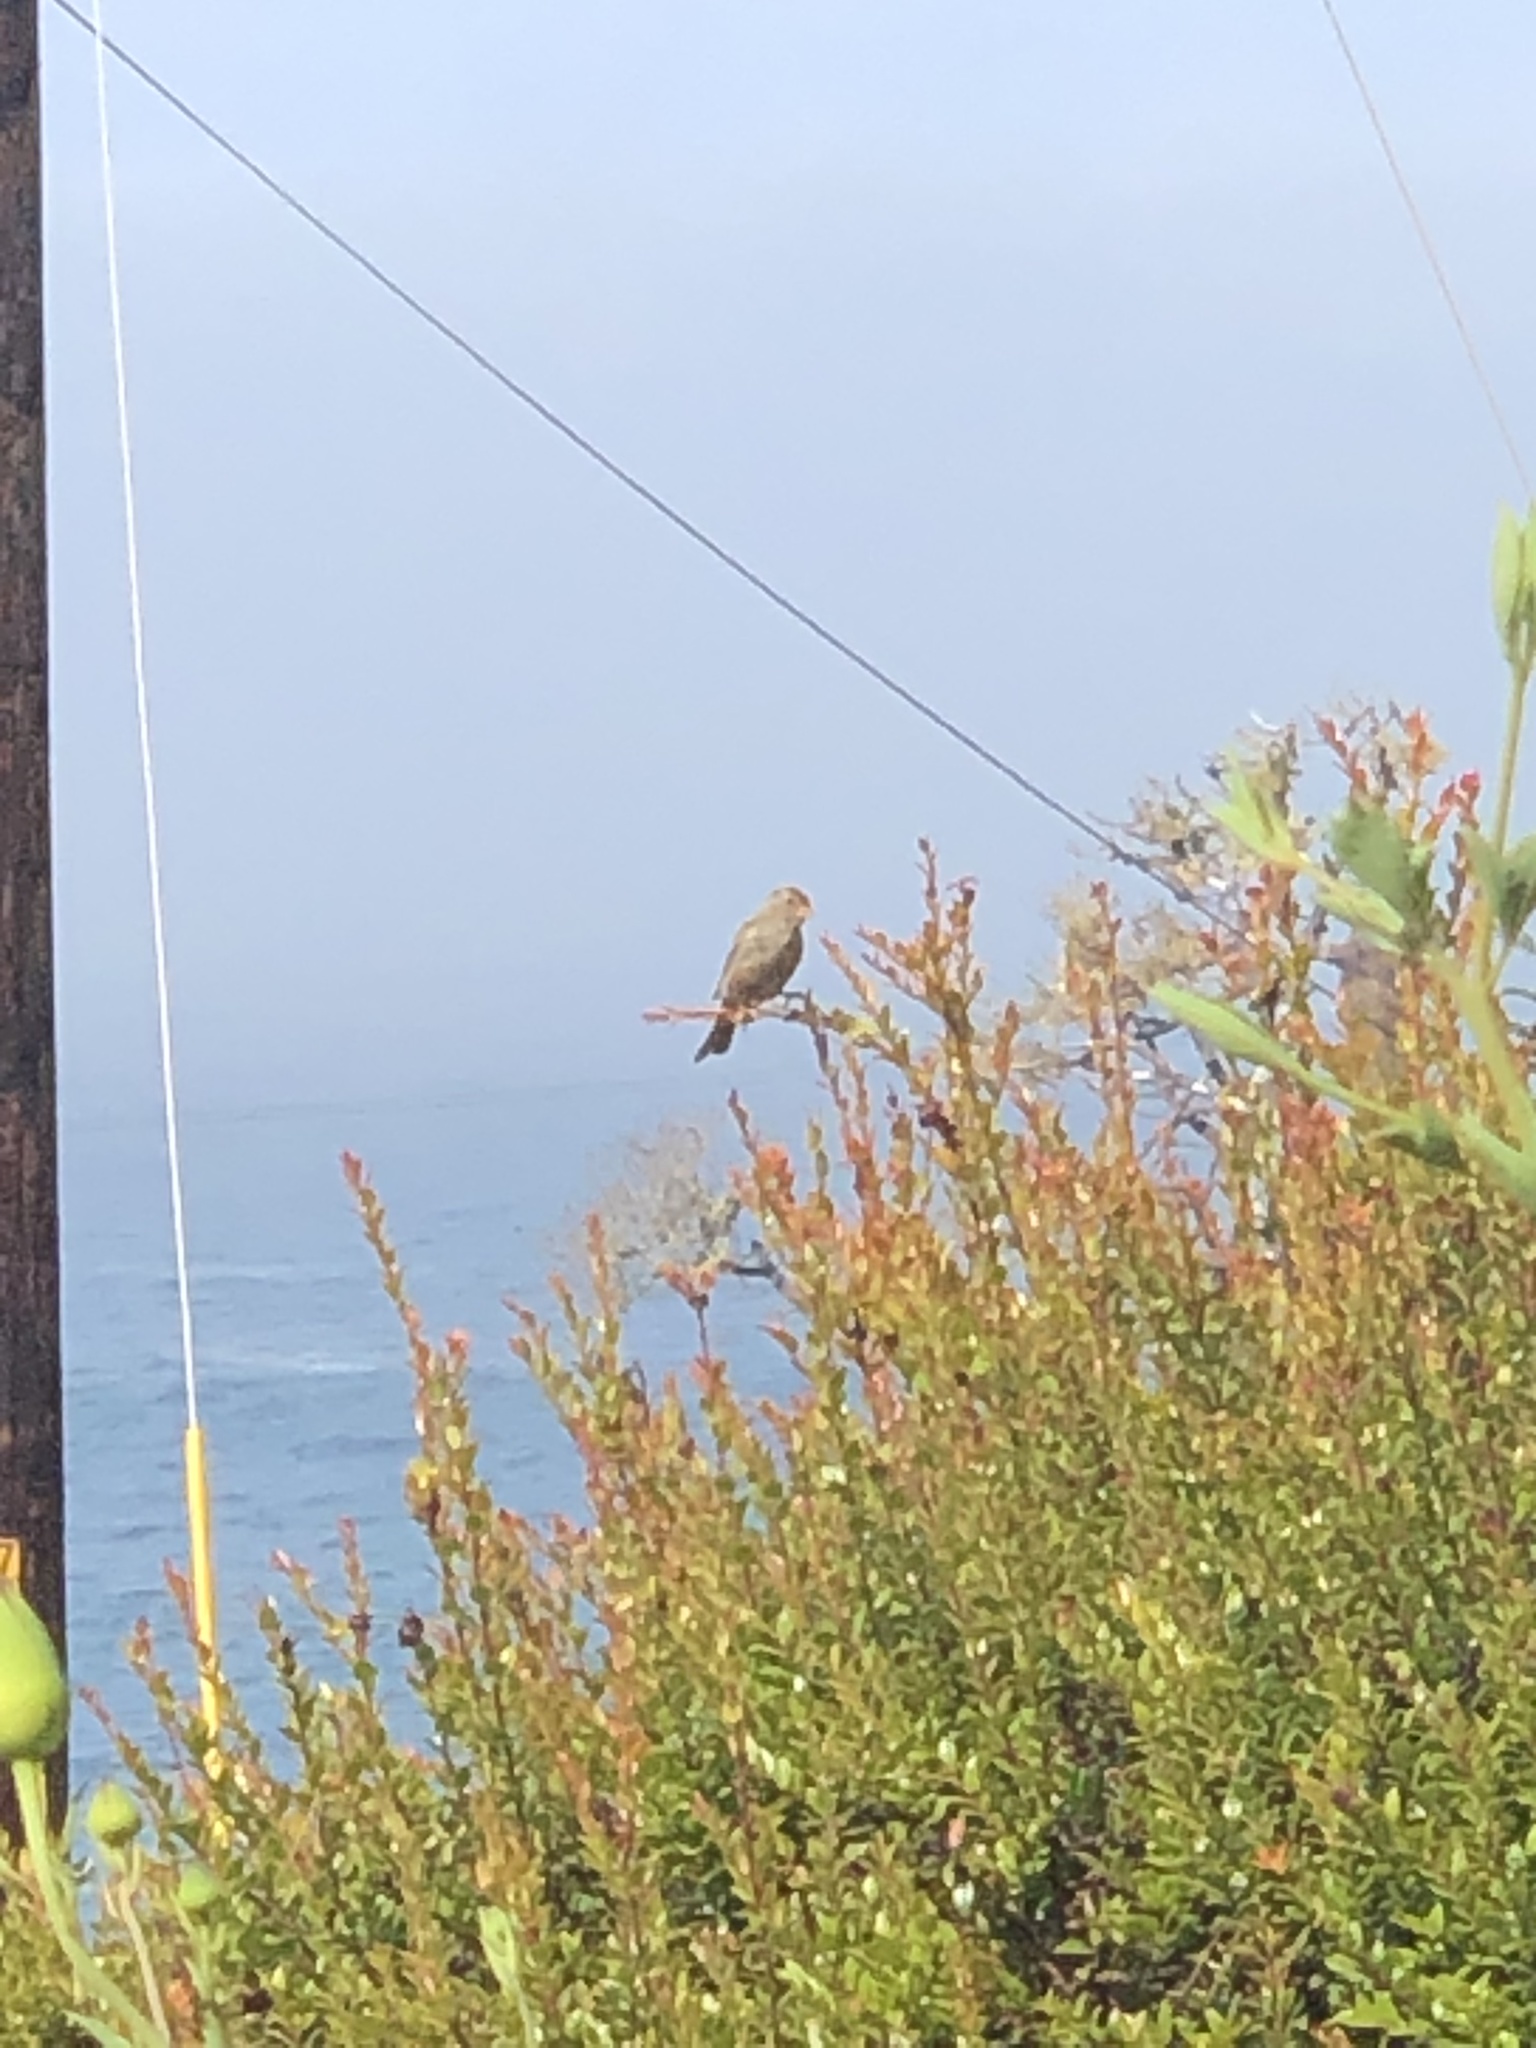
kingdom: Animalia
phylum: Chordata
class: Aves
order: Passeriformes
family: Passerellidae
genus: Zonotrichia
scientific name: Zonotrichia leucophrys
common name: White-crowned sparrow
